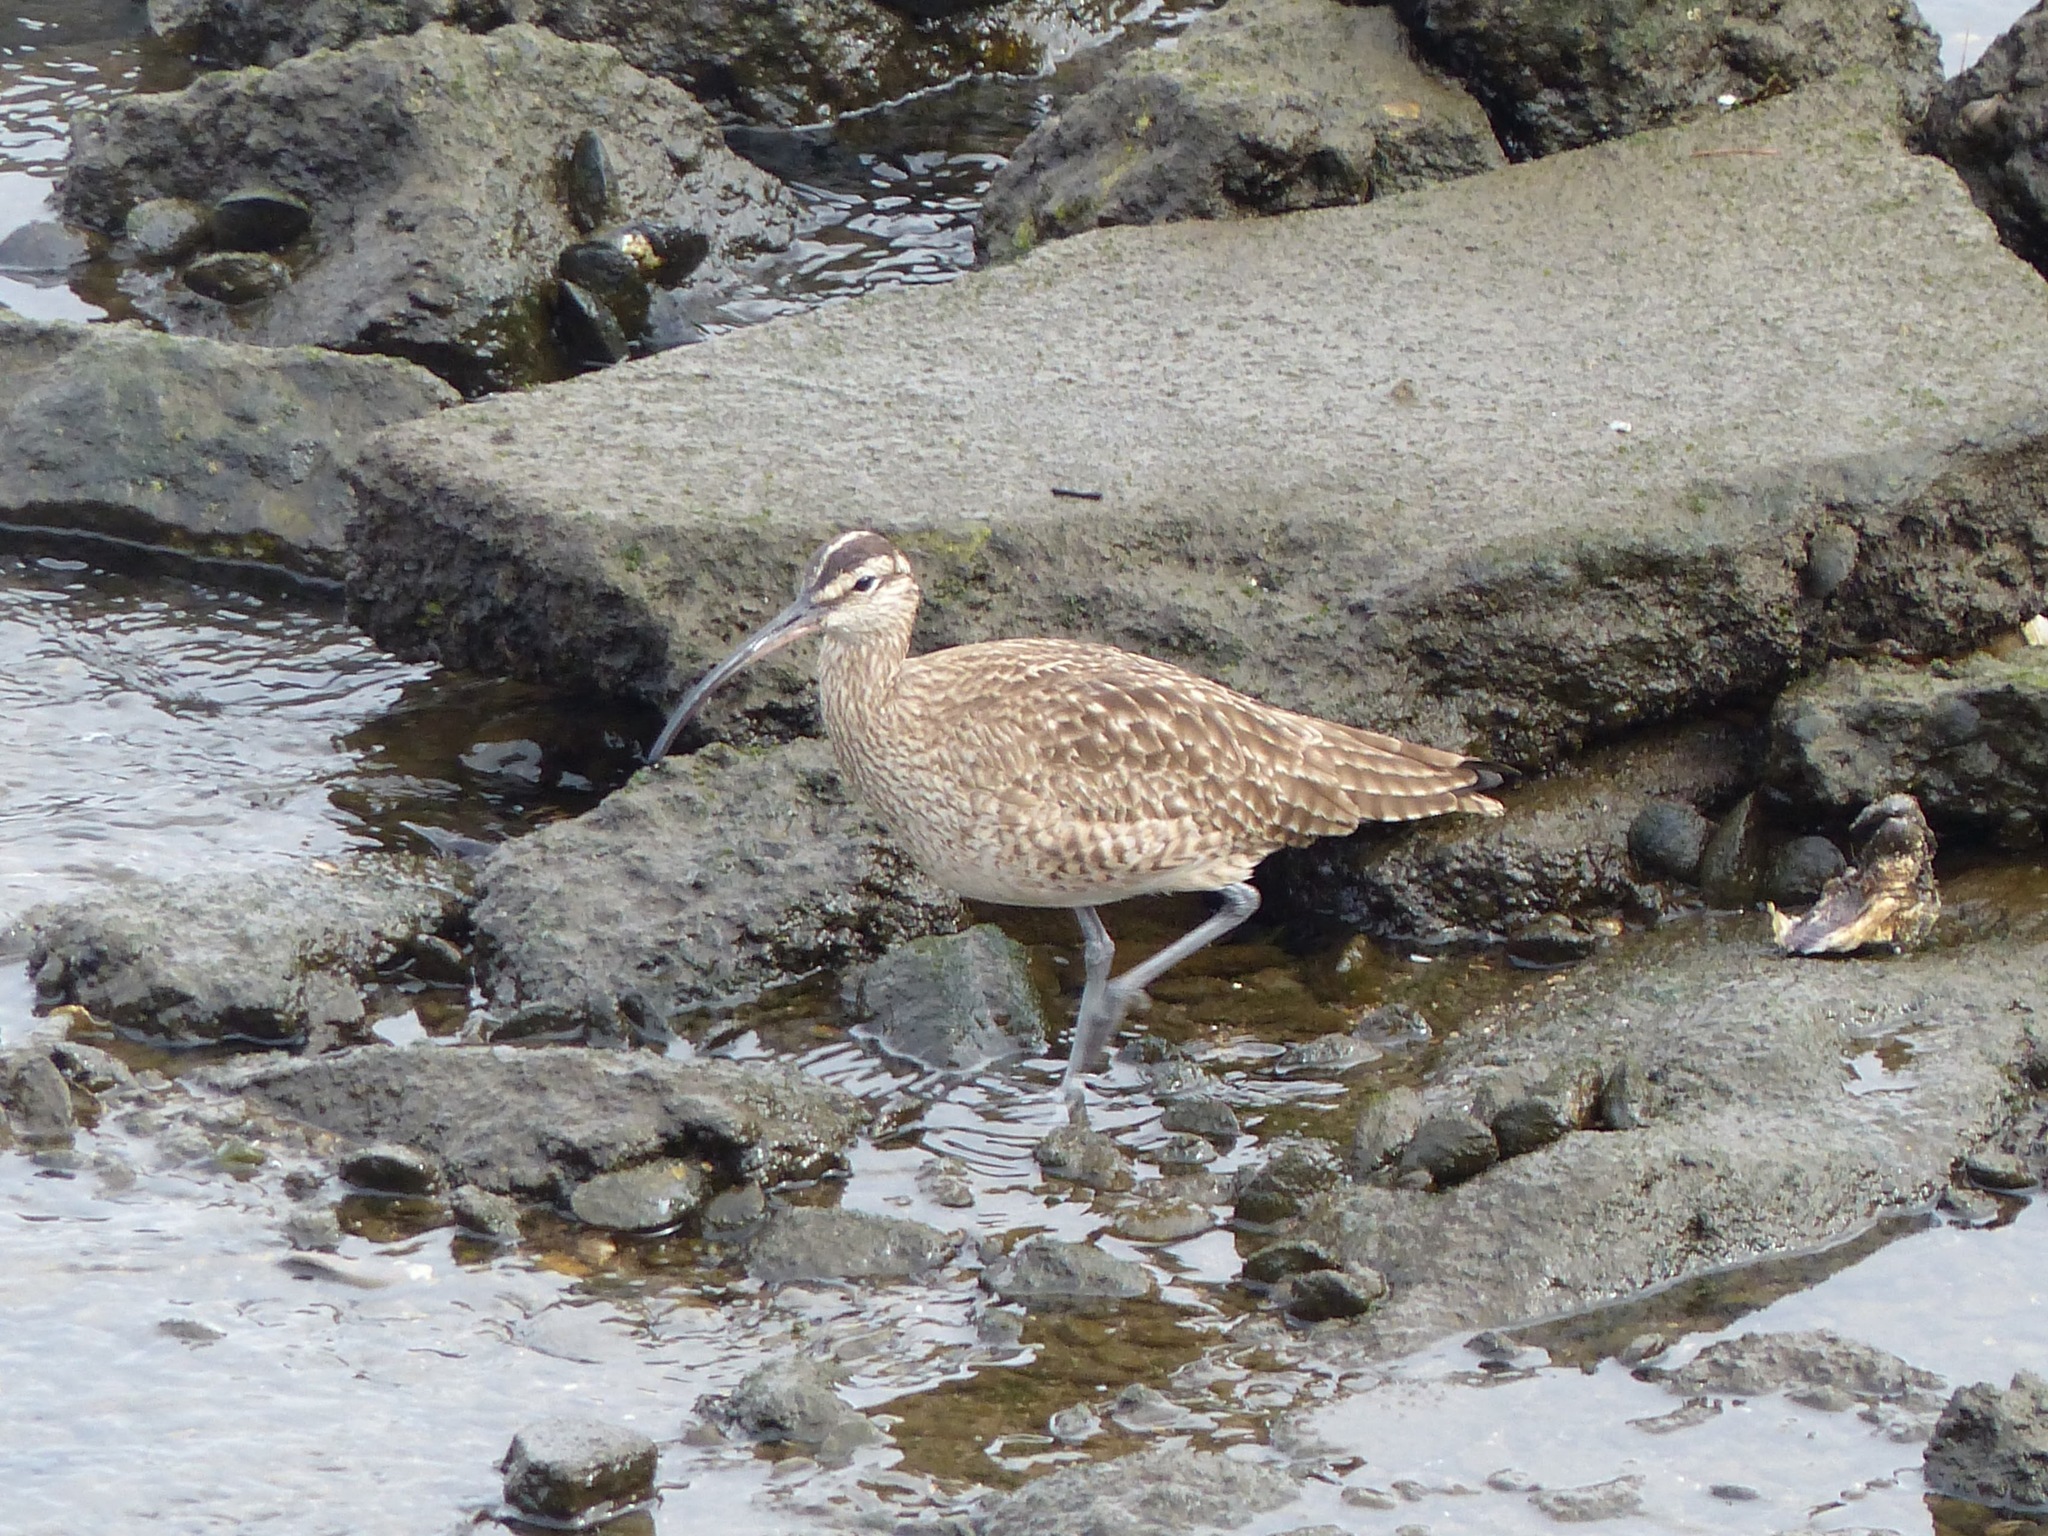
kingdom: Animalia
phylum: Chordata
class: Aves
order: Charadriiformes
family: Scolopacidae
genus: Numenius
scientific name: Numenius phaeopus
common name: Whimbrel
